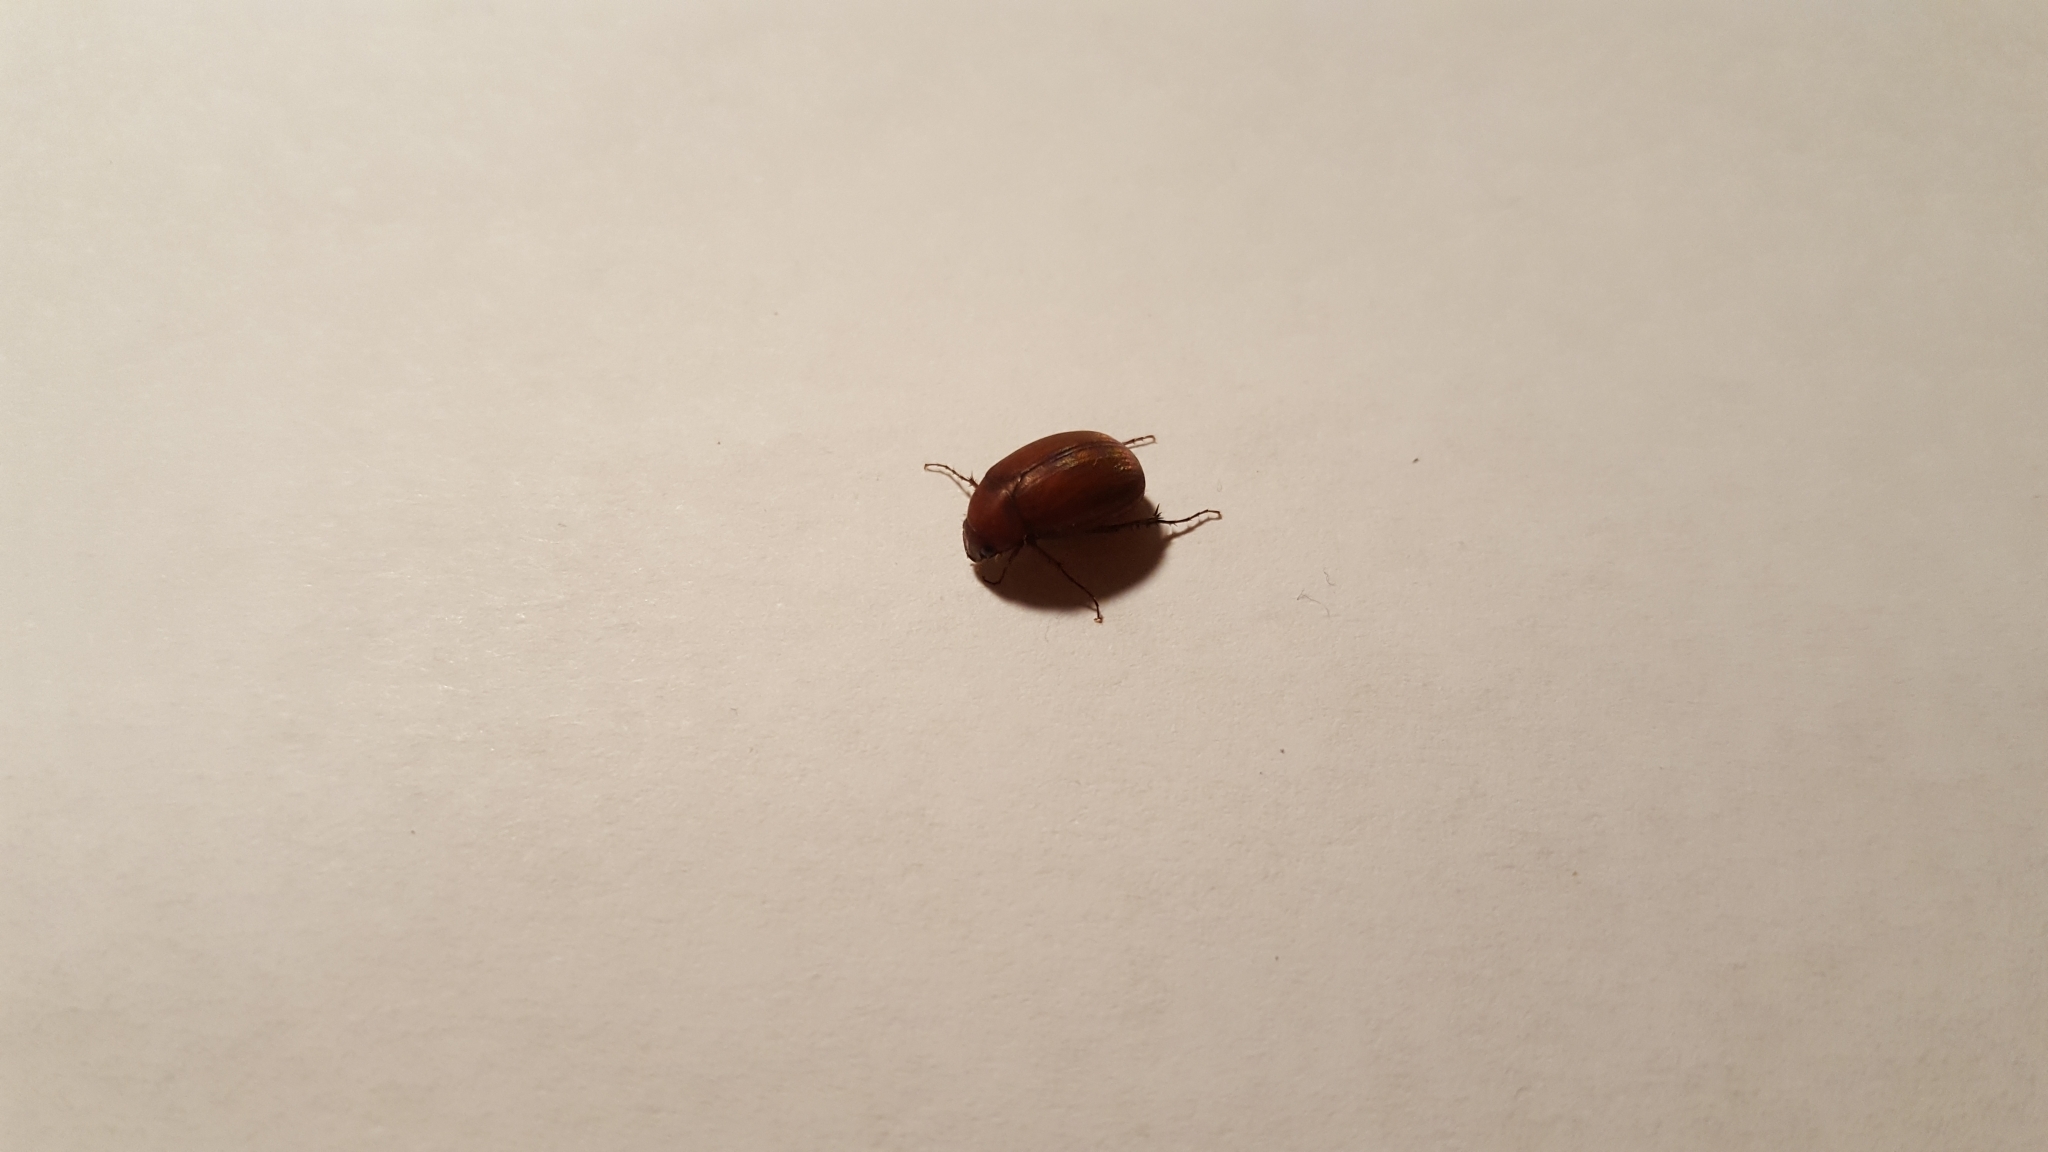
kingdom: Animalia
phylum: Arthropoda
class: Insecta
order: Coleoptera
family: Scarabaeidae
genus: Maladera
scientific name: Maladera formosae
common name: Asiatic garden beetle
